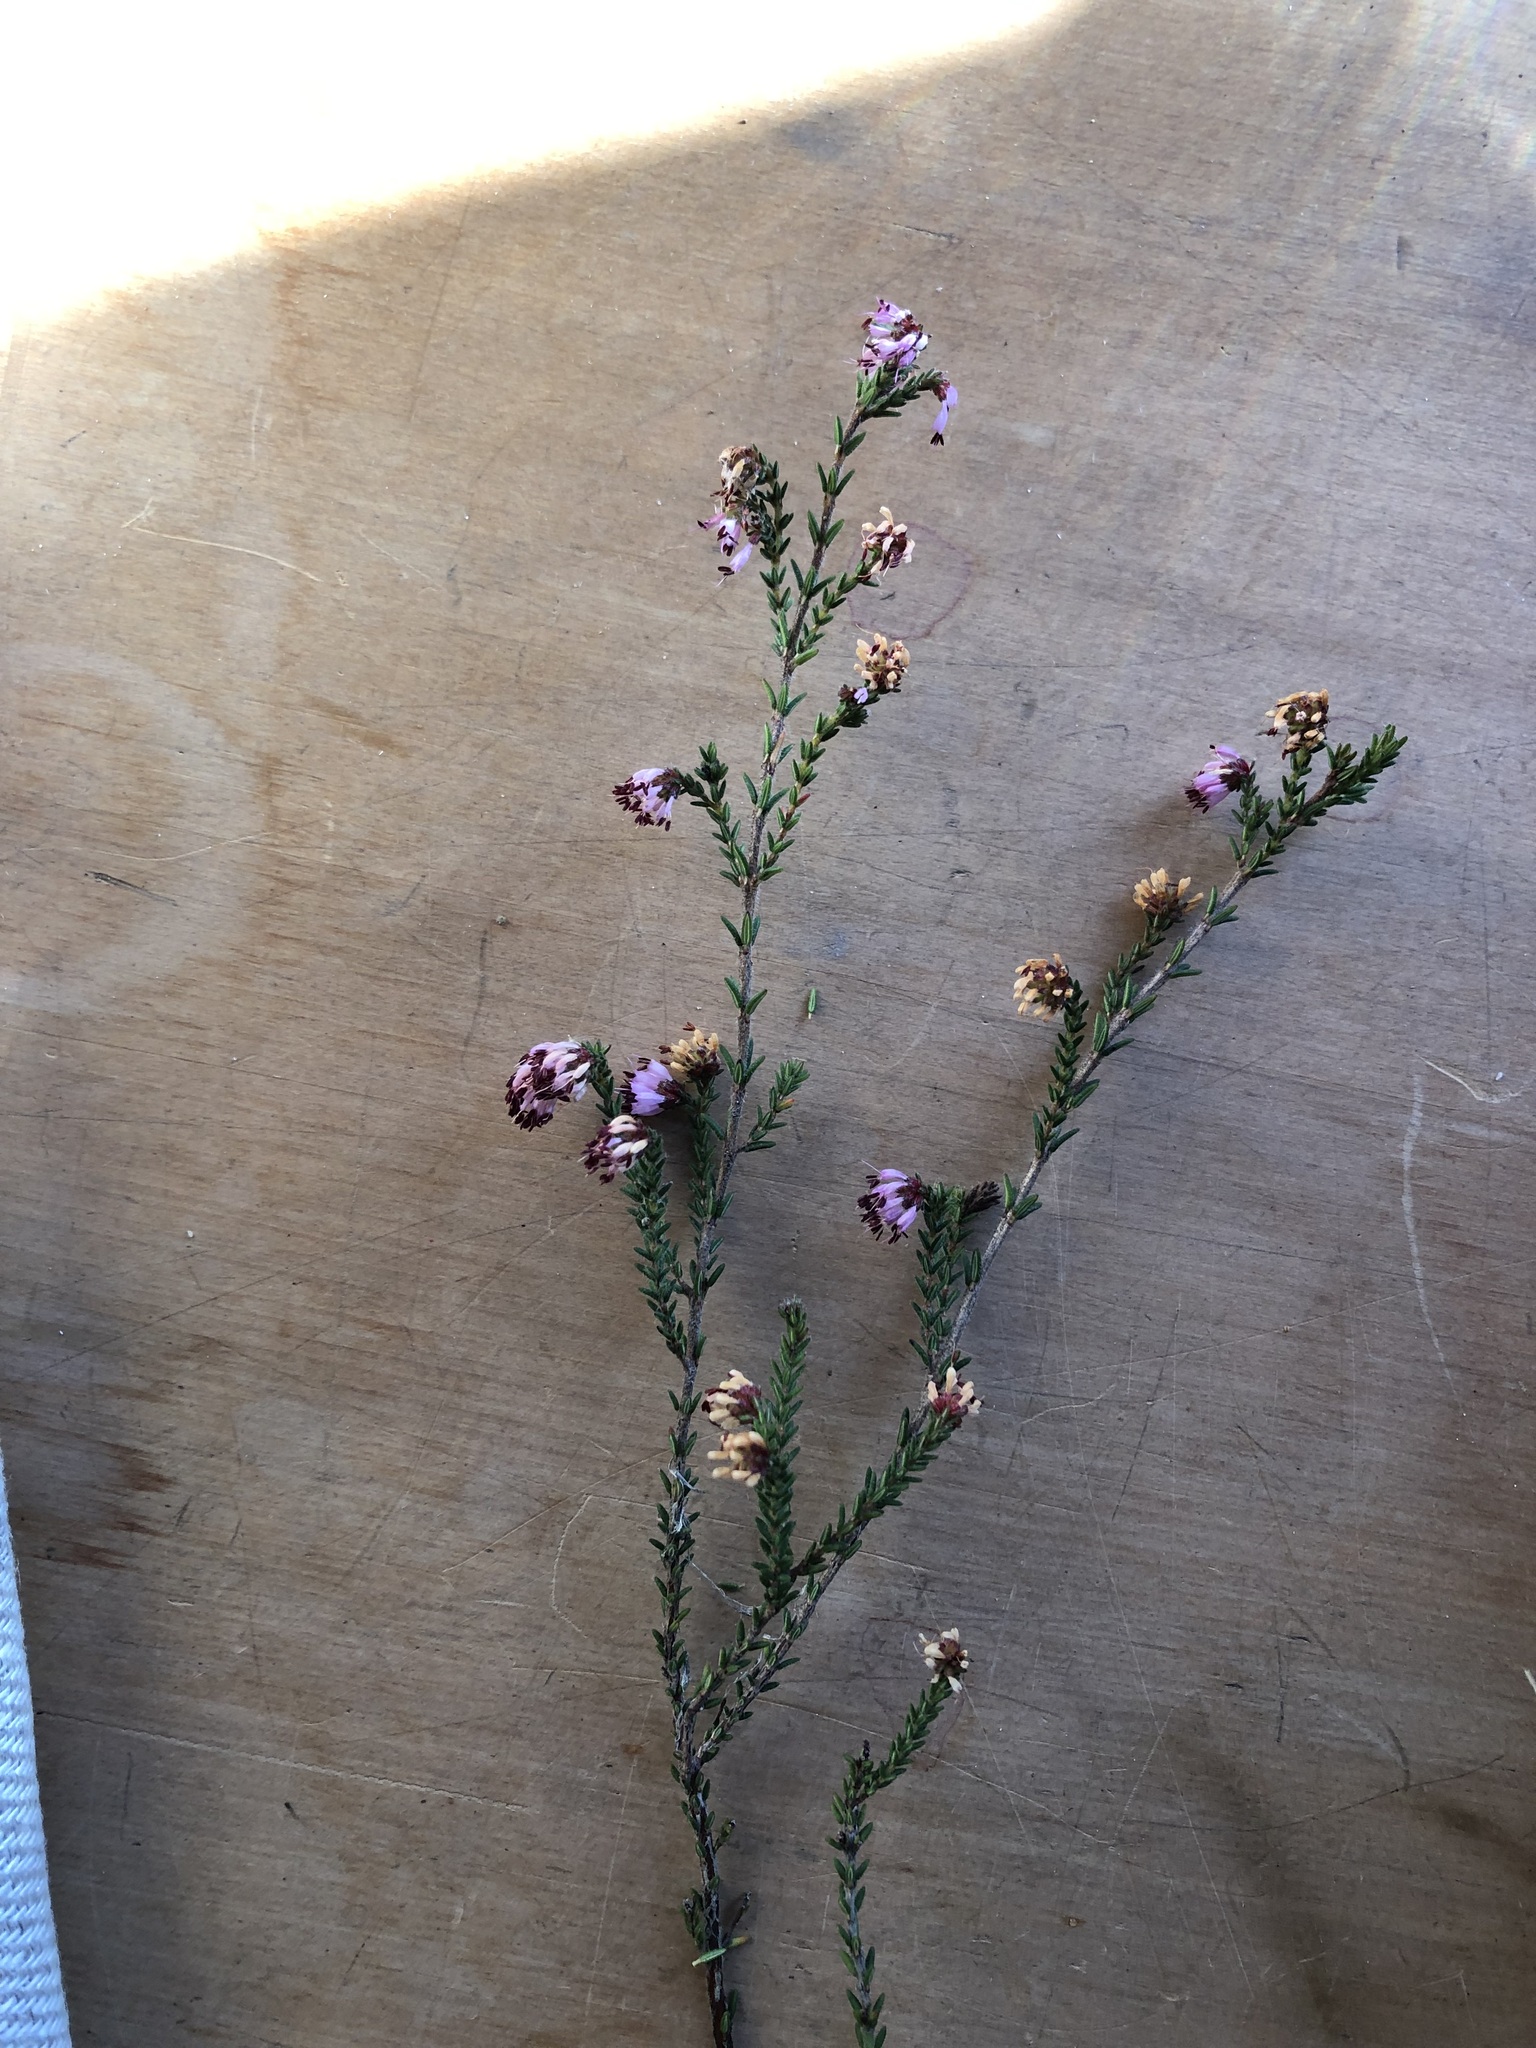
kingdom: Plantae
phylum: Tracheophyta
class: Magnoliopsida
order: Ericales
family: Ericaceae
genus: Erica
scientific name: Erica glabella
